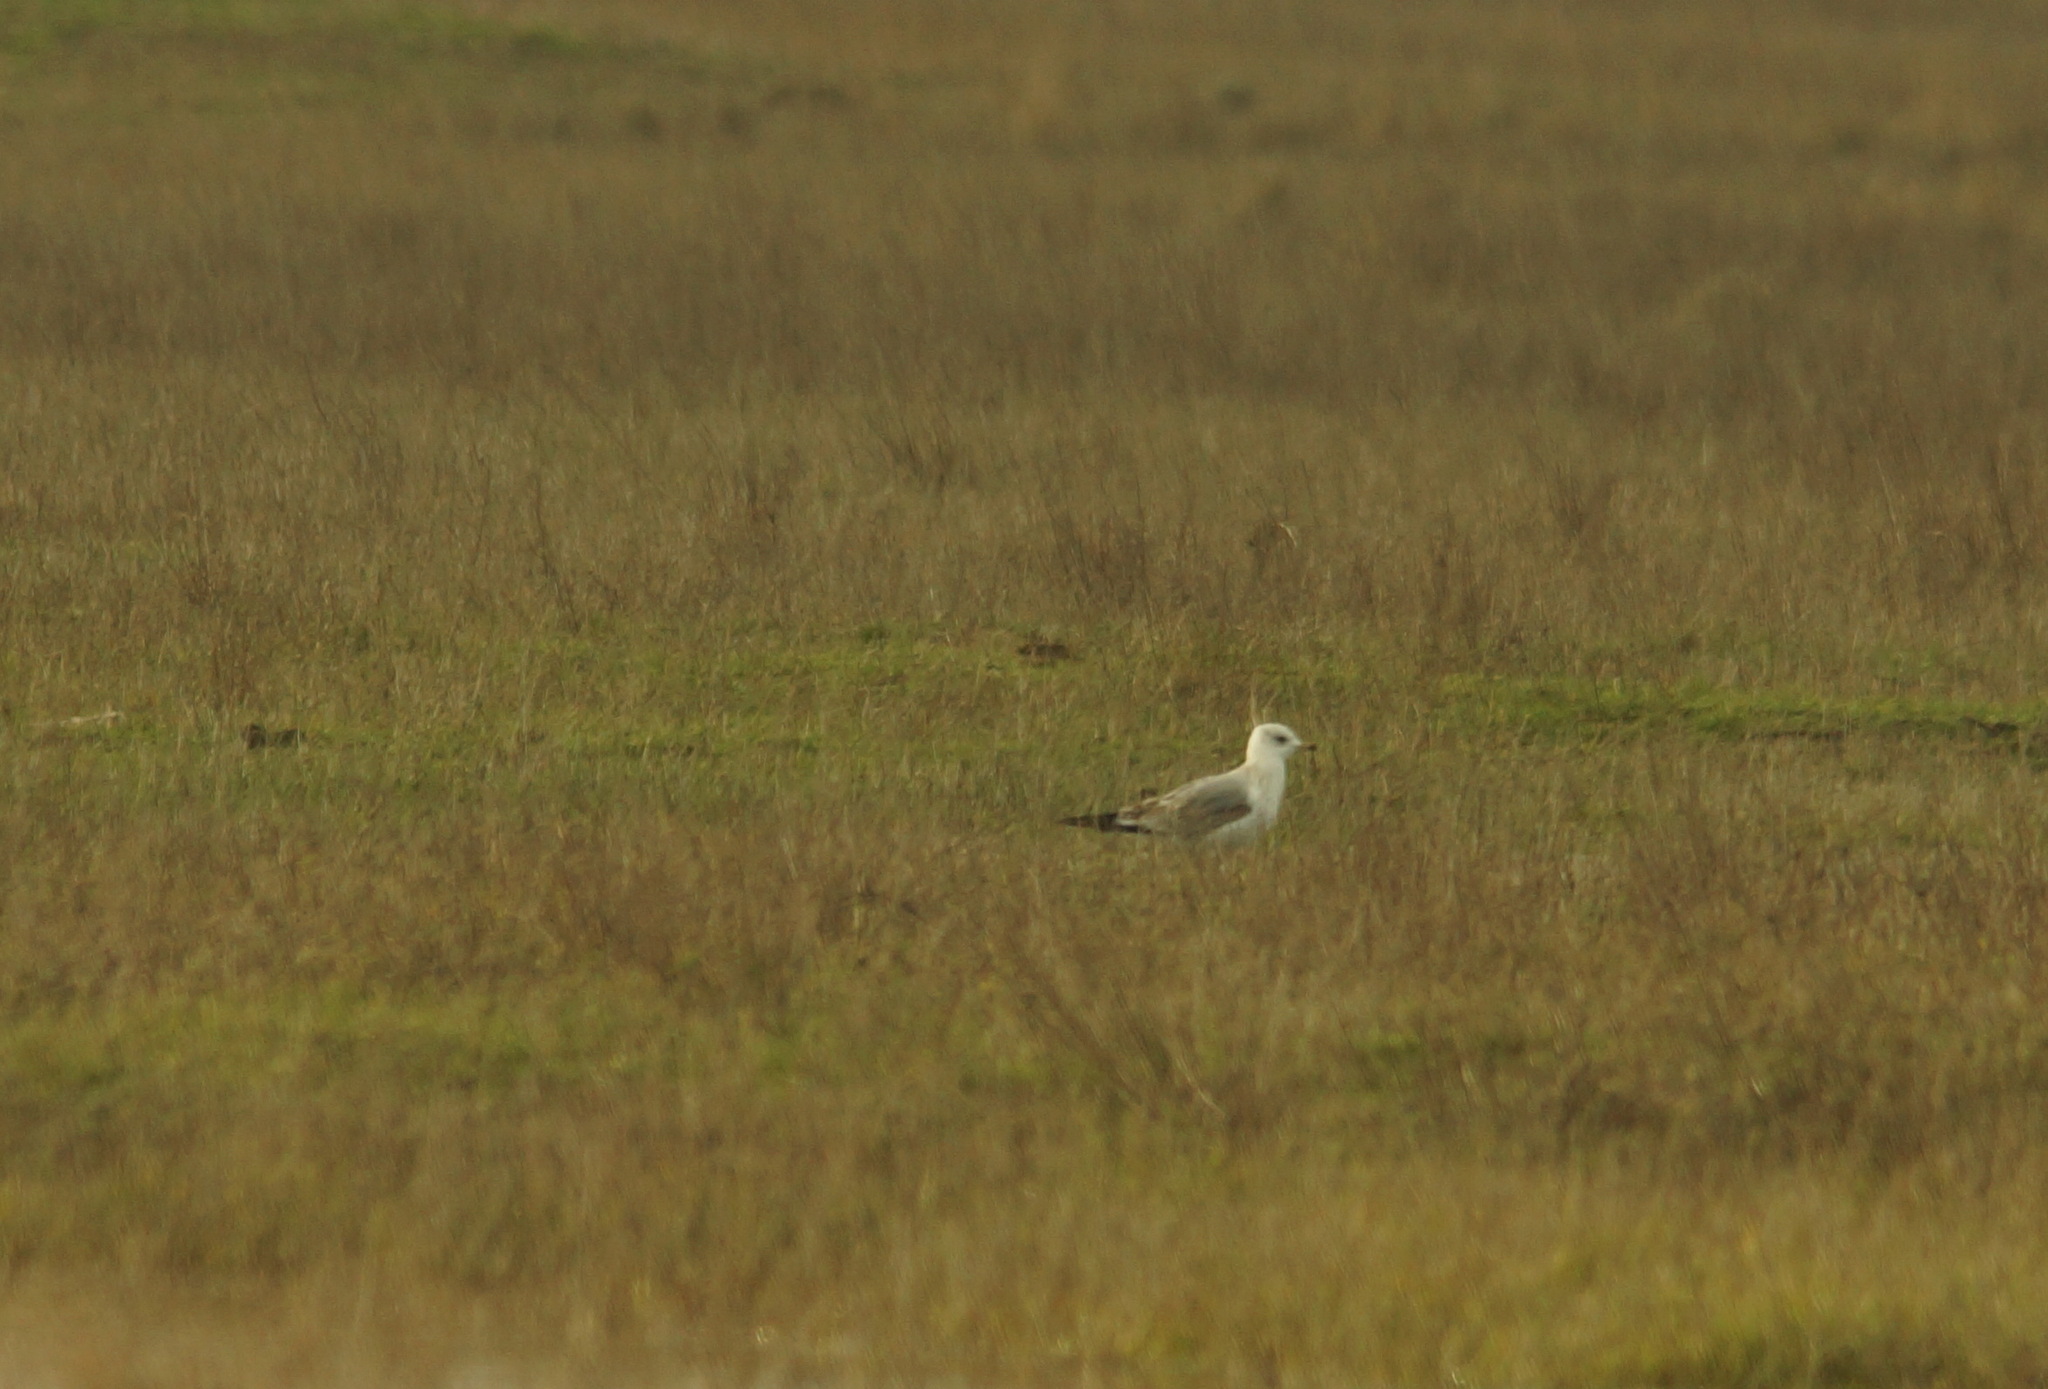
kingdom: Animalia
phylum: Chordata
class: Aves
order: Charadriiformes
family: Laridae
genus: Larus
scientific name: Larus canus
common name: Mew gull
